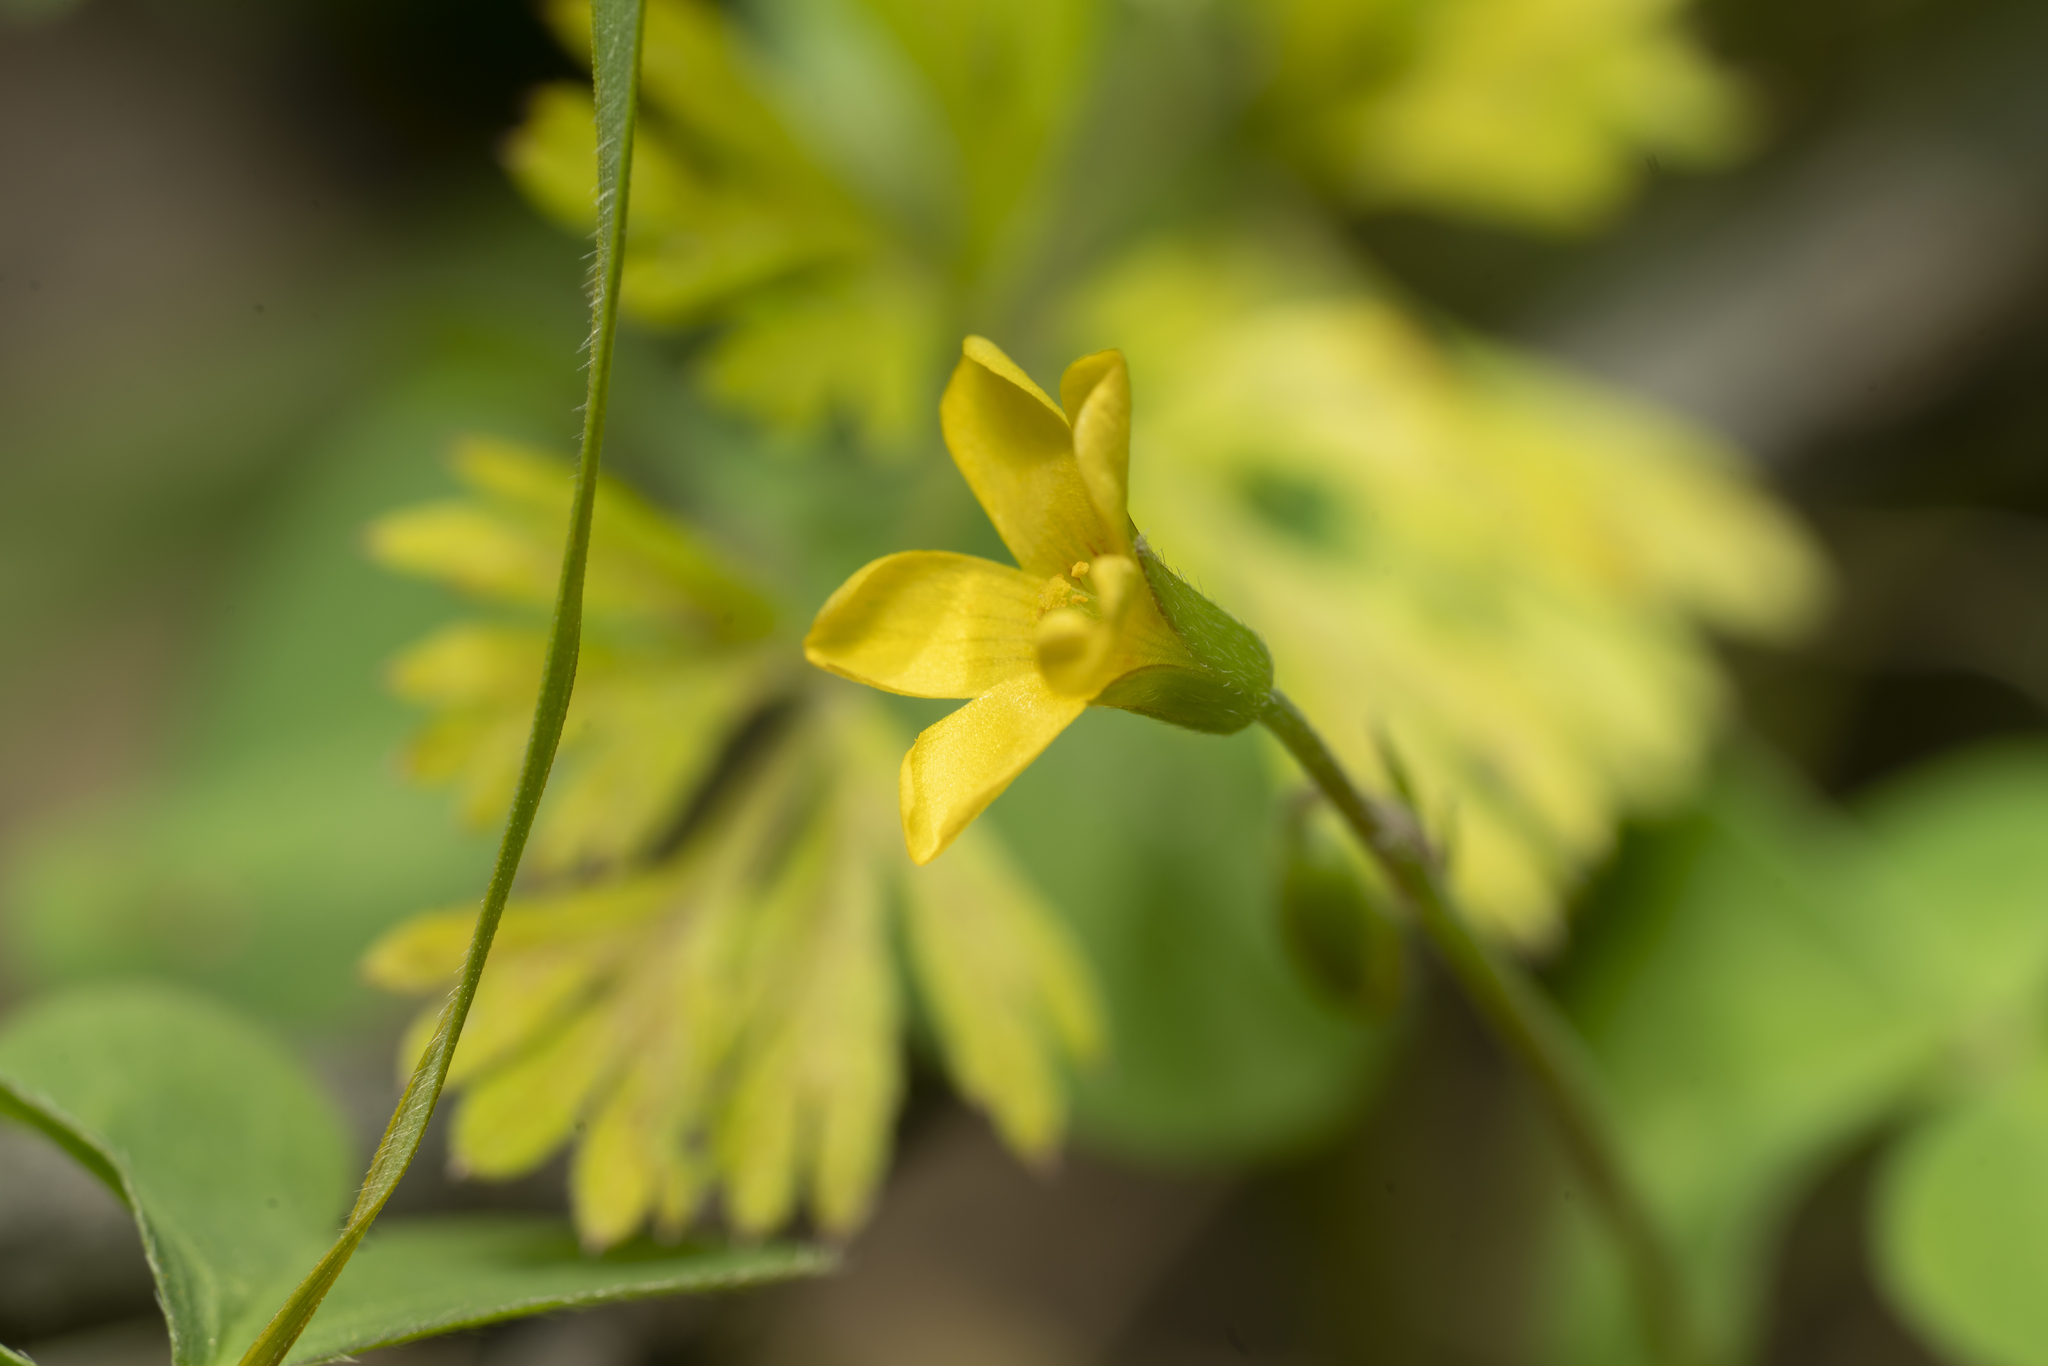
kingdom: Plantae
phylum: Tracheophyta
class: Magnoliopsida
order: Oxalidales
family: Oxalidaceae
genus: Oxalis
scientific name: Oxalis corniculata
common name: Procumbent yellow-sorrel
